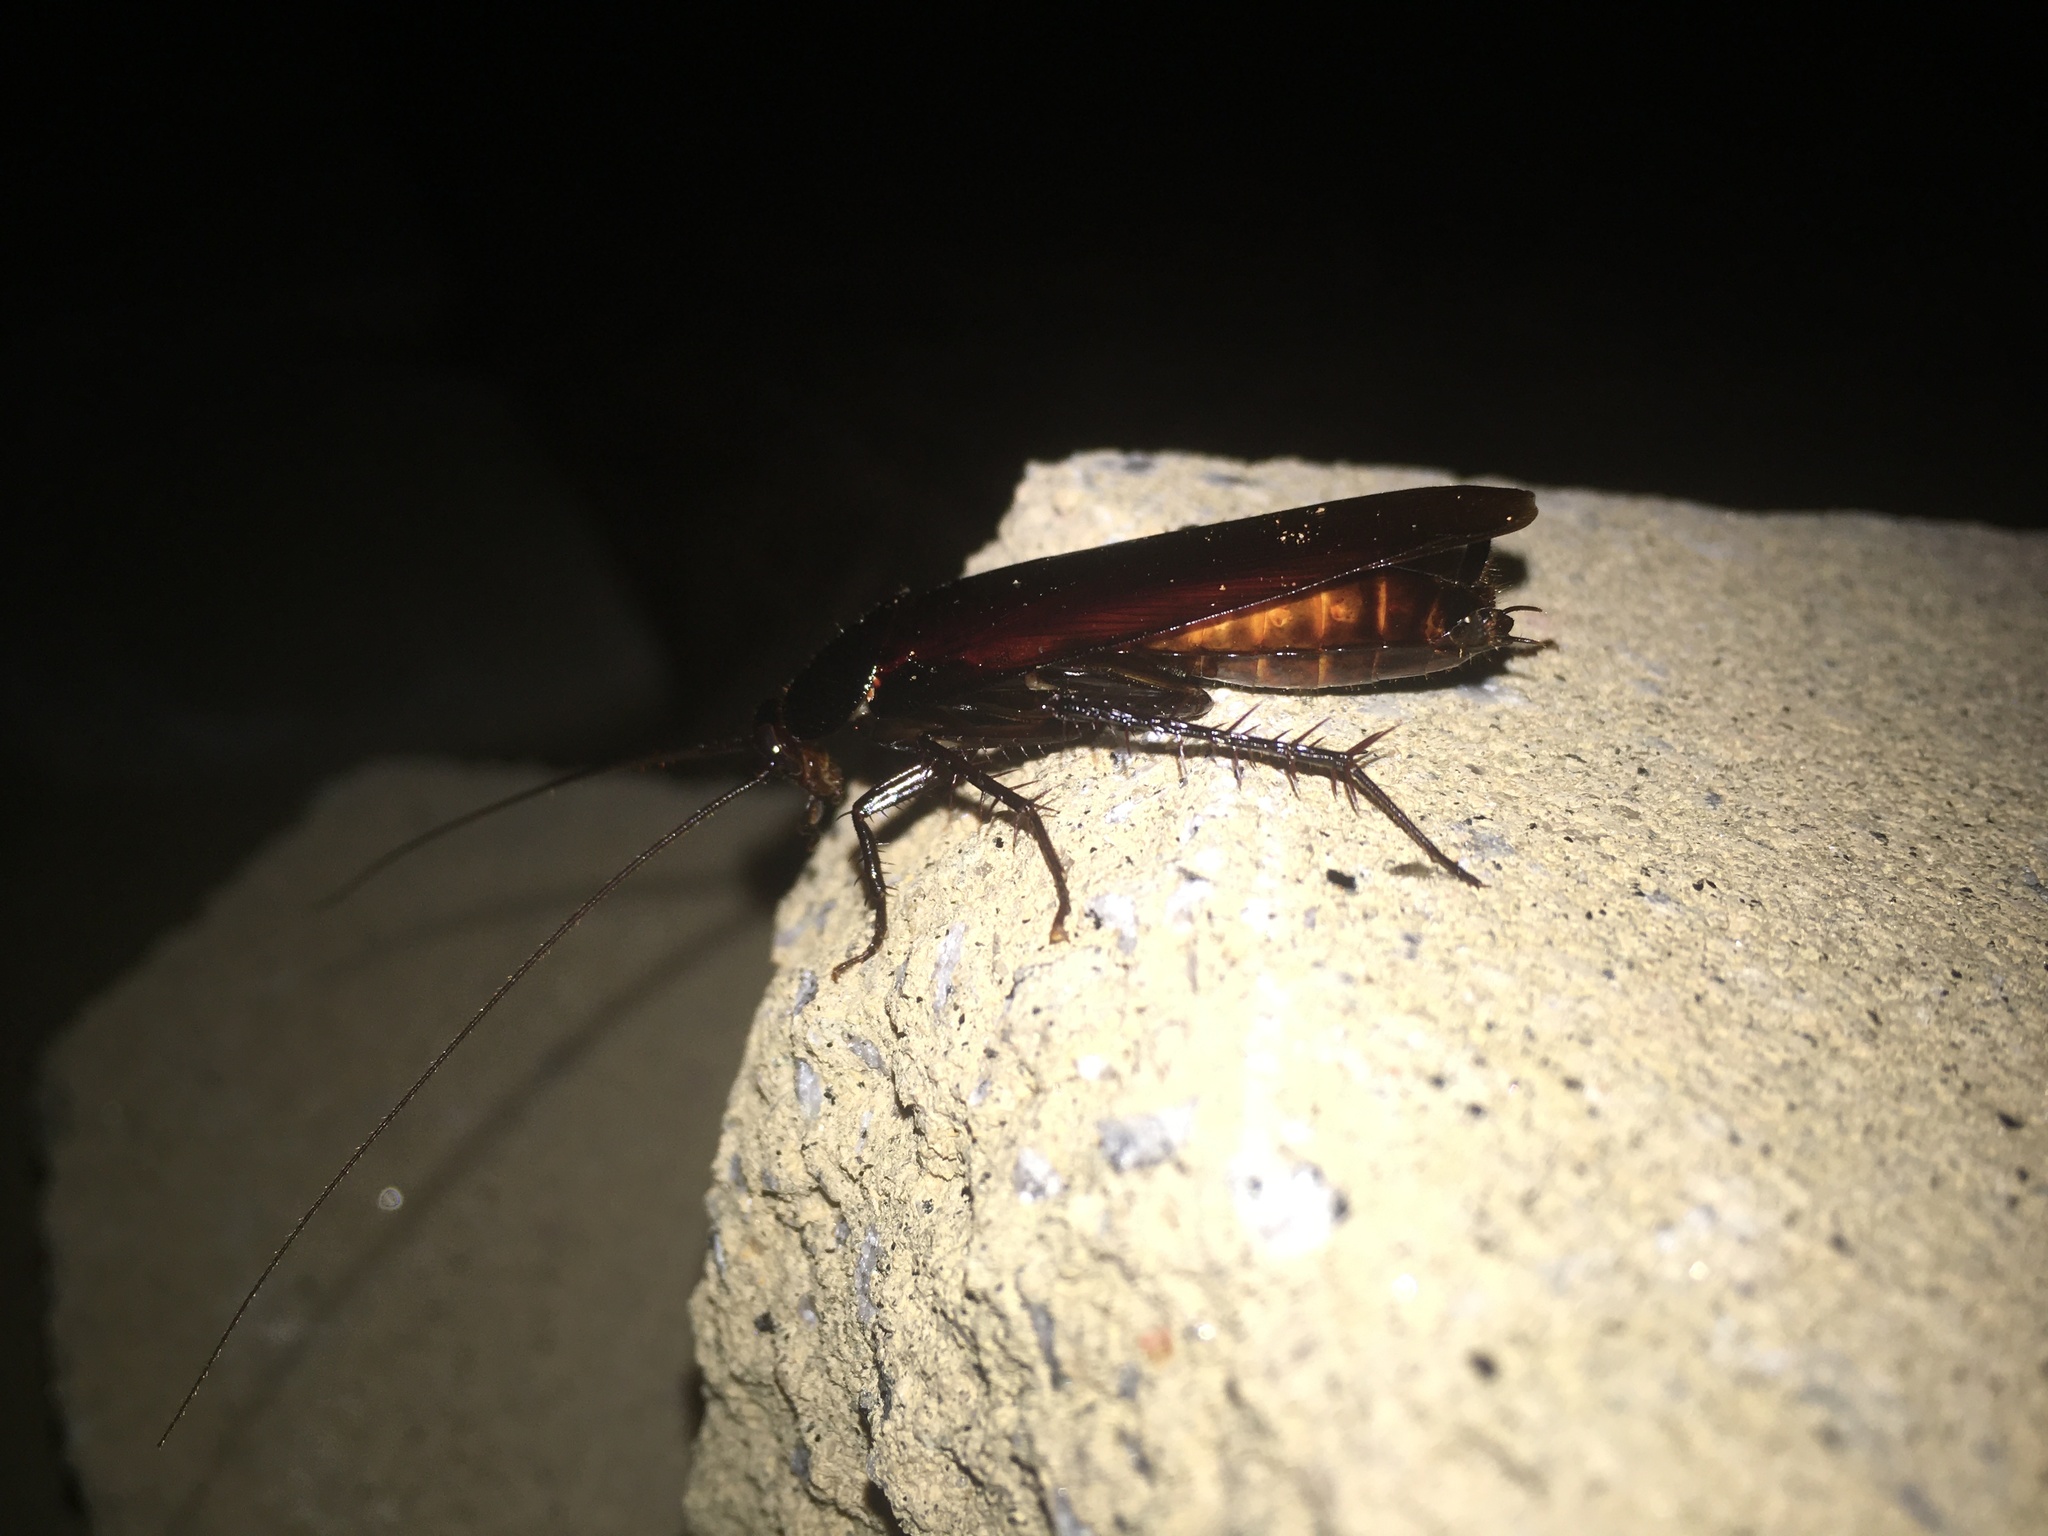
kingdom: Animalia
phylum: Arthropoda
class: Insecta
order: Blattodea
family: Blattidae
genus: Periplaneta
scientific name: Periplaneta fuliginosa
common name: Smokeybrown cockroad
